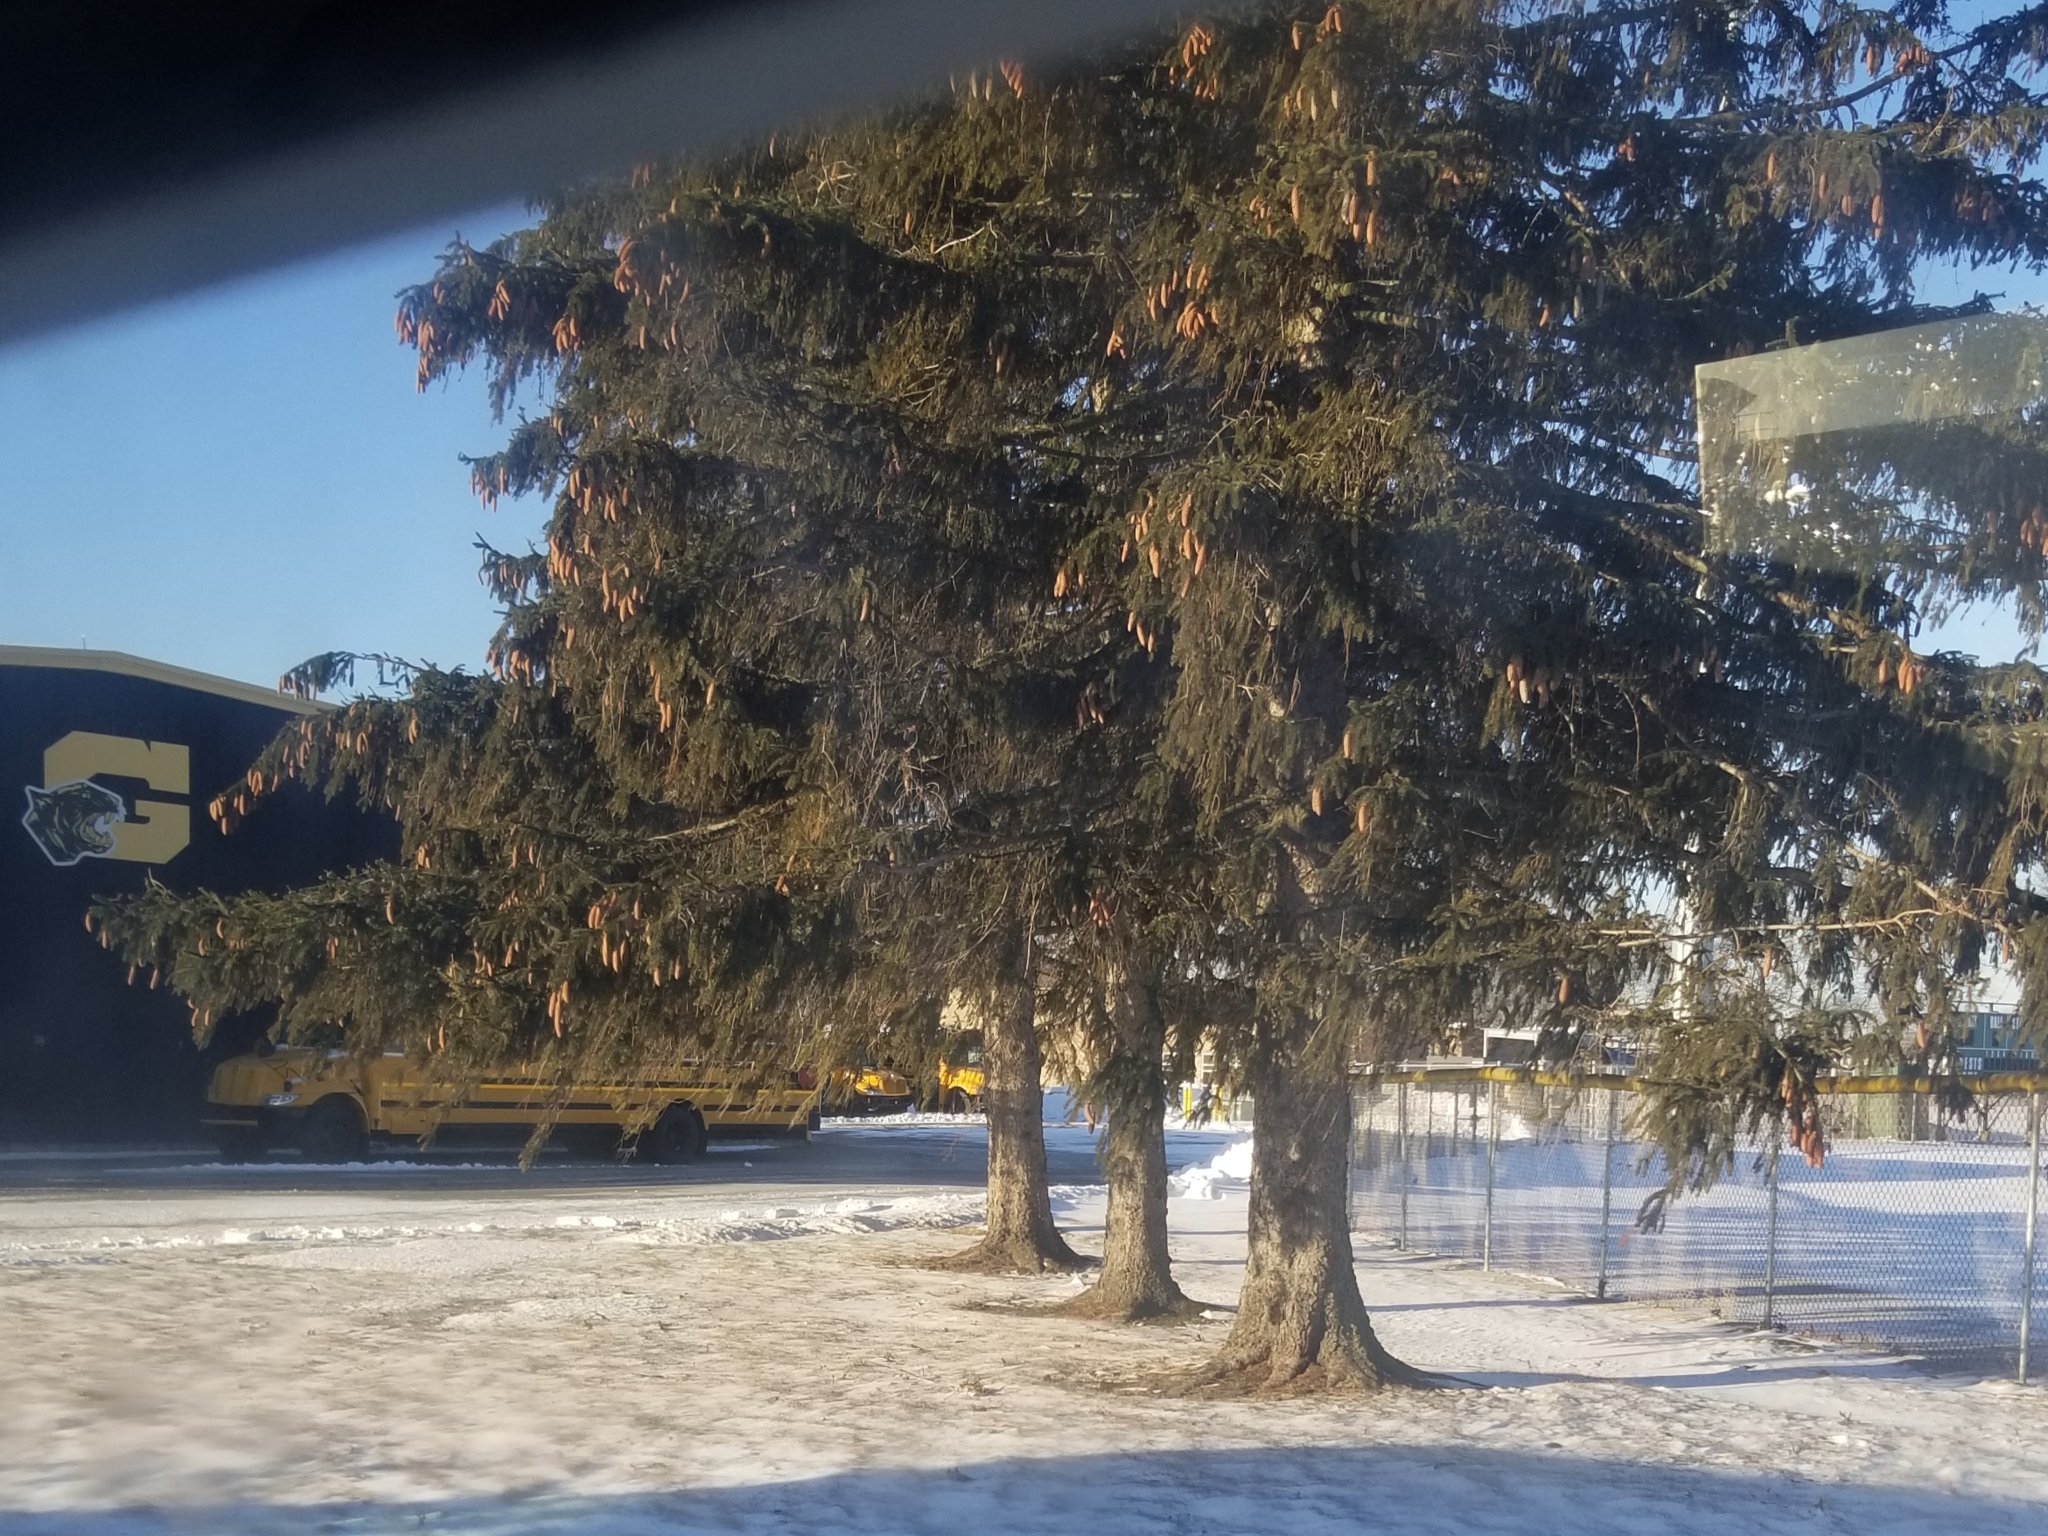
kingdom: Plantae
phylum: Tracheophyta
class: Pinopsida
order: Pinales
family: Pinaceae
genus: Picea
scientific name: Picea abies
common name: Norway spruce
